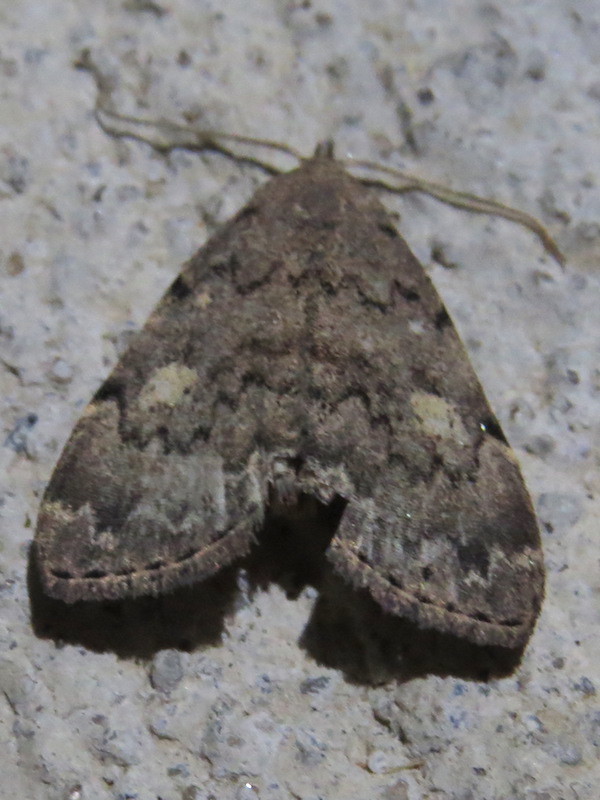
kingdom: Animalia
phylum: Arthropoda
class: Insecta
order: Lepidoptera
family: Erebidae
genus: Idia
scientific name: Idia aemula
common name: Common idia moth
